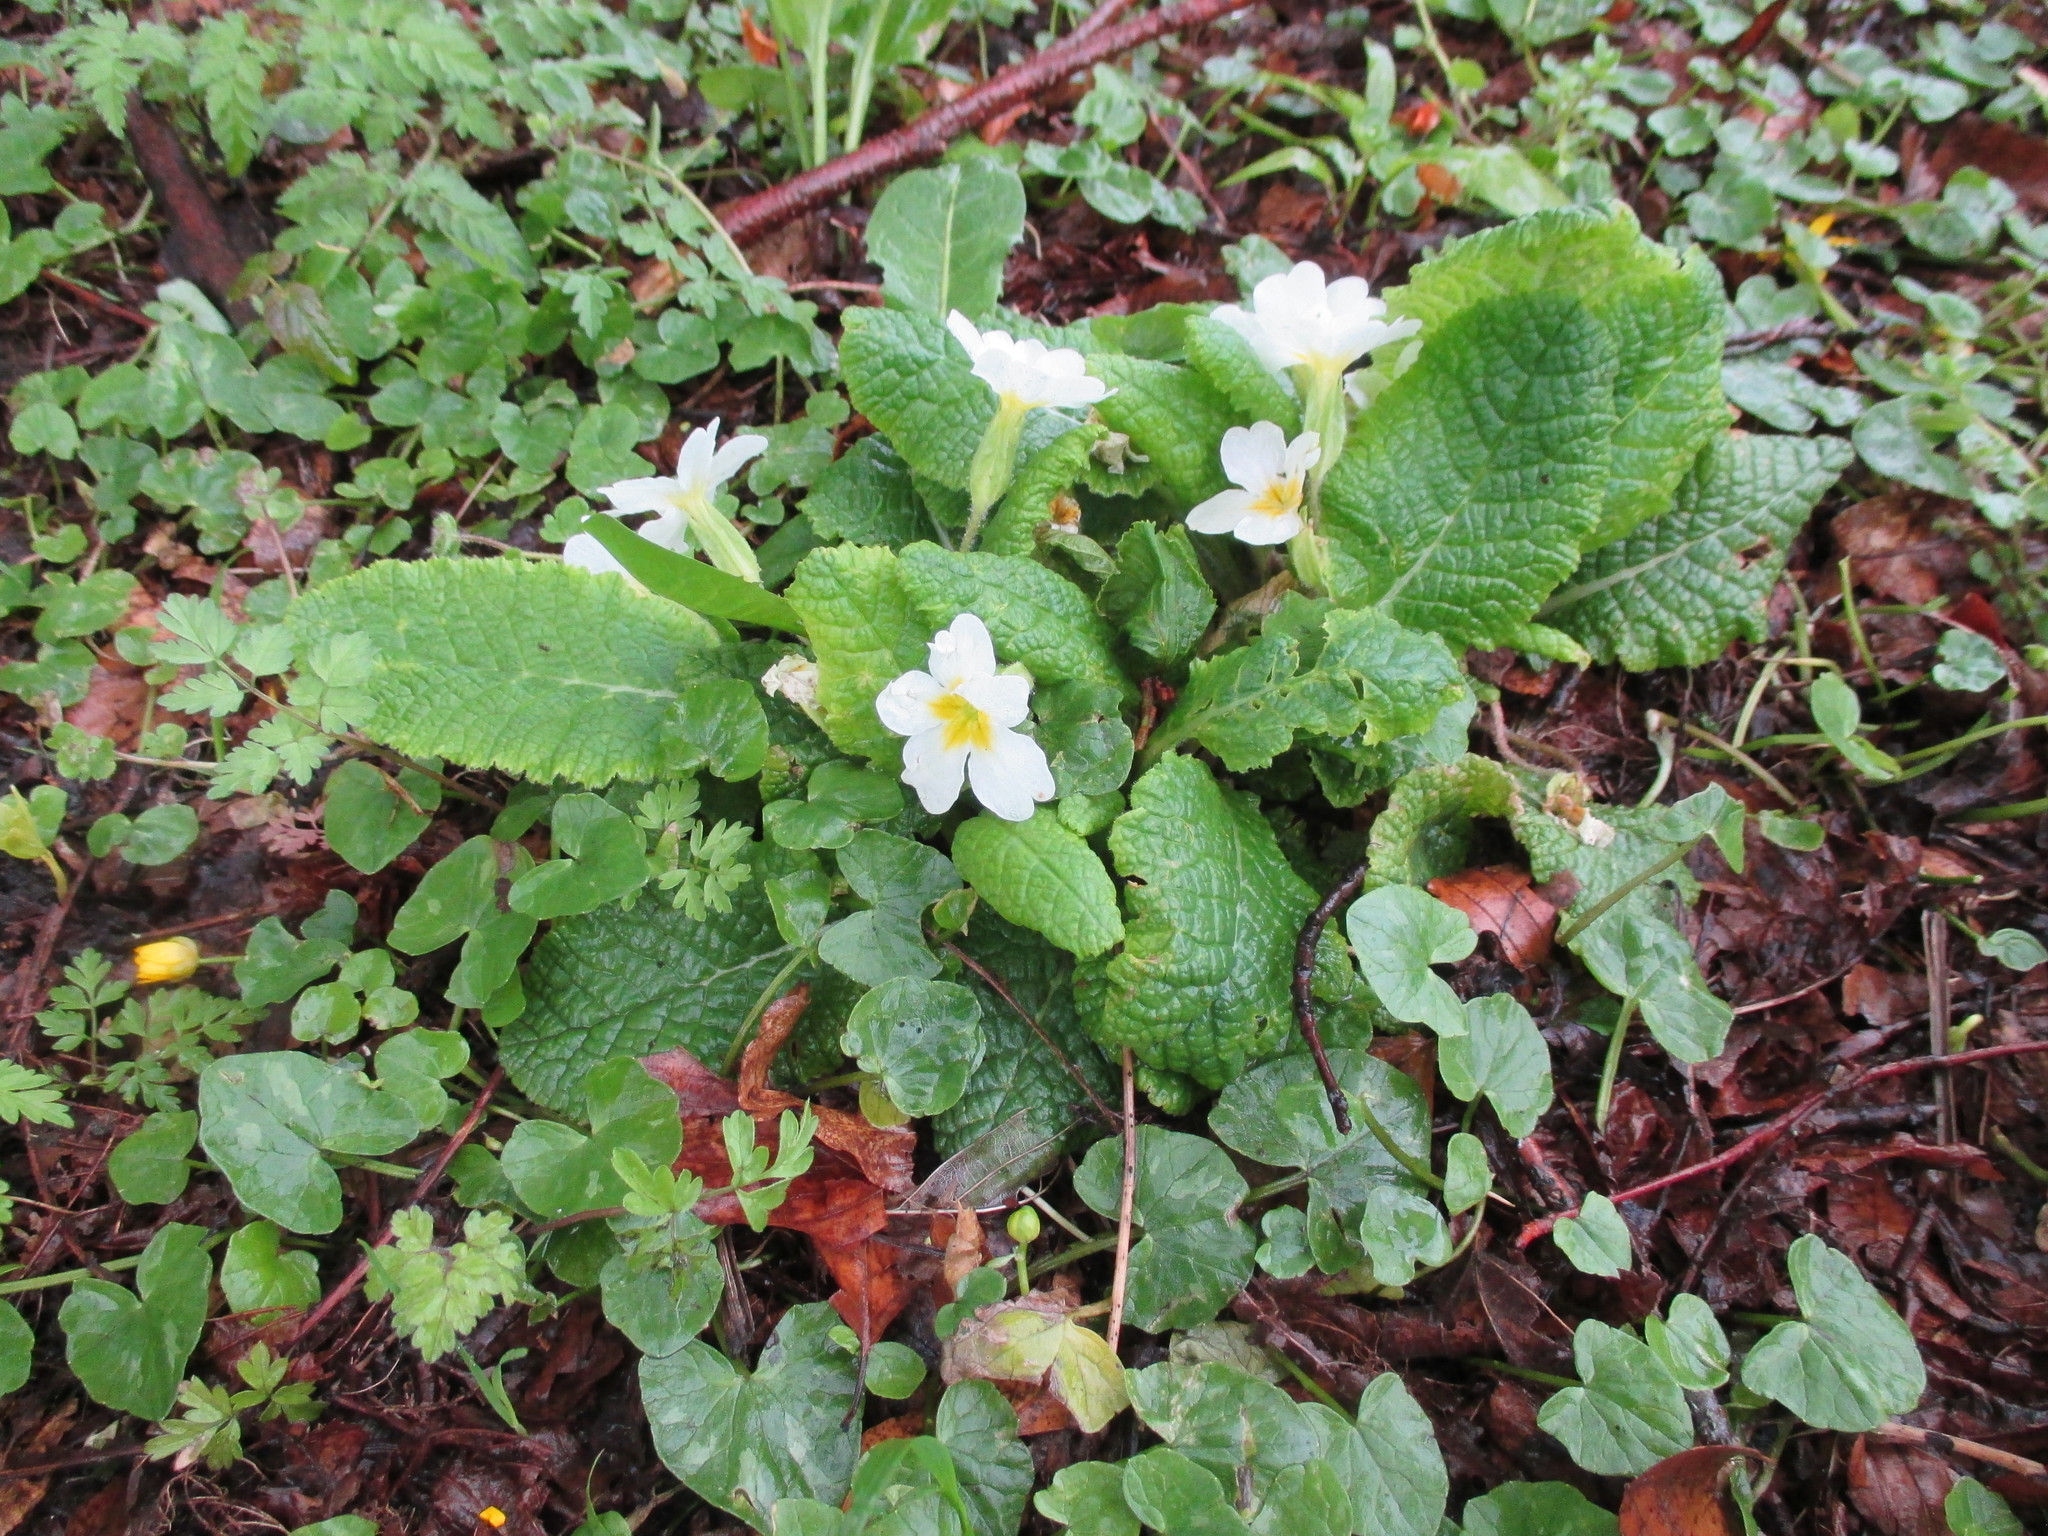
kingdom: Plantae
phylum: Tracheophyta
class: Magnoliopsida
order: Ericales
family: Primulaceae
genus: Primula
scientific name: Primula vulgaris
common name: Primrose
